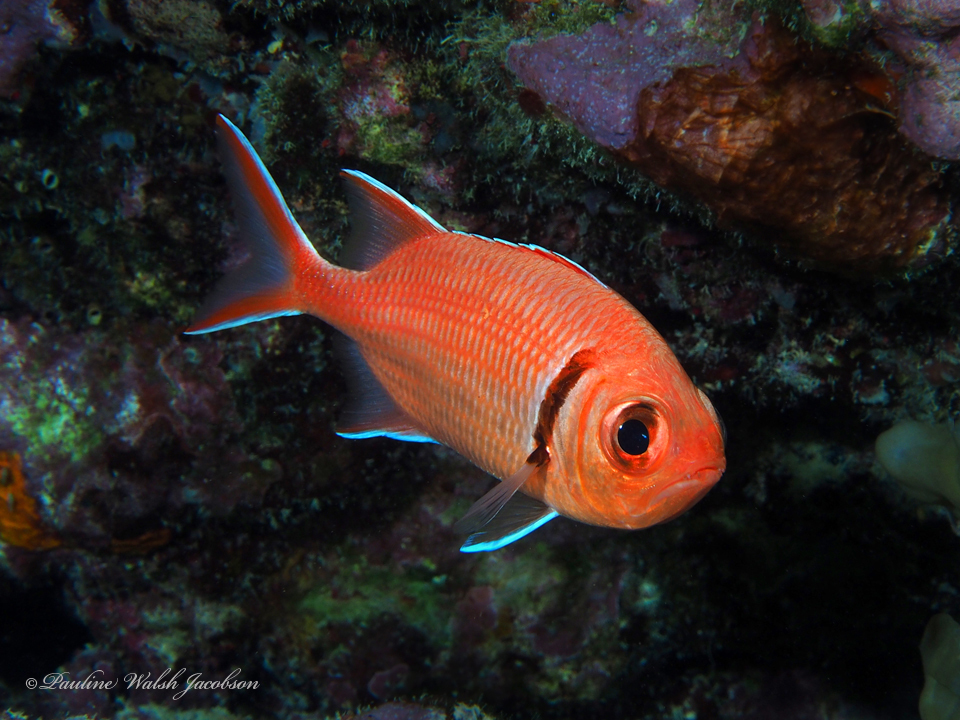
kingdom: Animalia
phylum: Chordata
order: Beryciformes
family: Holocentridae
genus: Myripristis
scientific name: Myripristis jacobus
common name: Blackbar soldierfish
